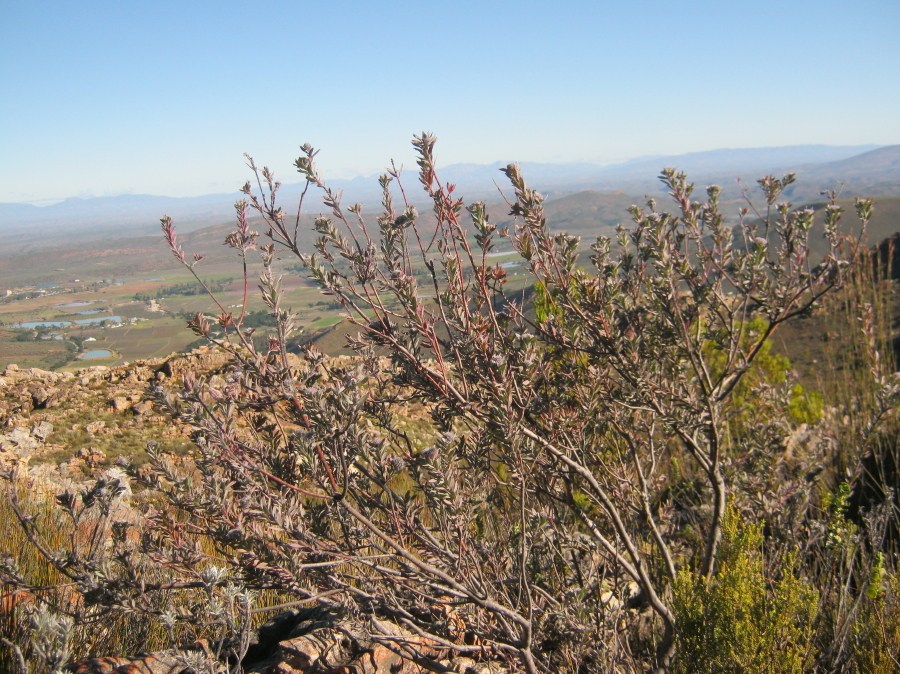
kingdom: Plantae
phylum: Tracheophyta
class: Magnoliopsida
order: Proteales
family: Proteaceae
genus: Leucospermum
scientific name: Leucospermum wittebergense
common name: Swartberg pincushion
